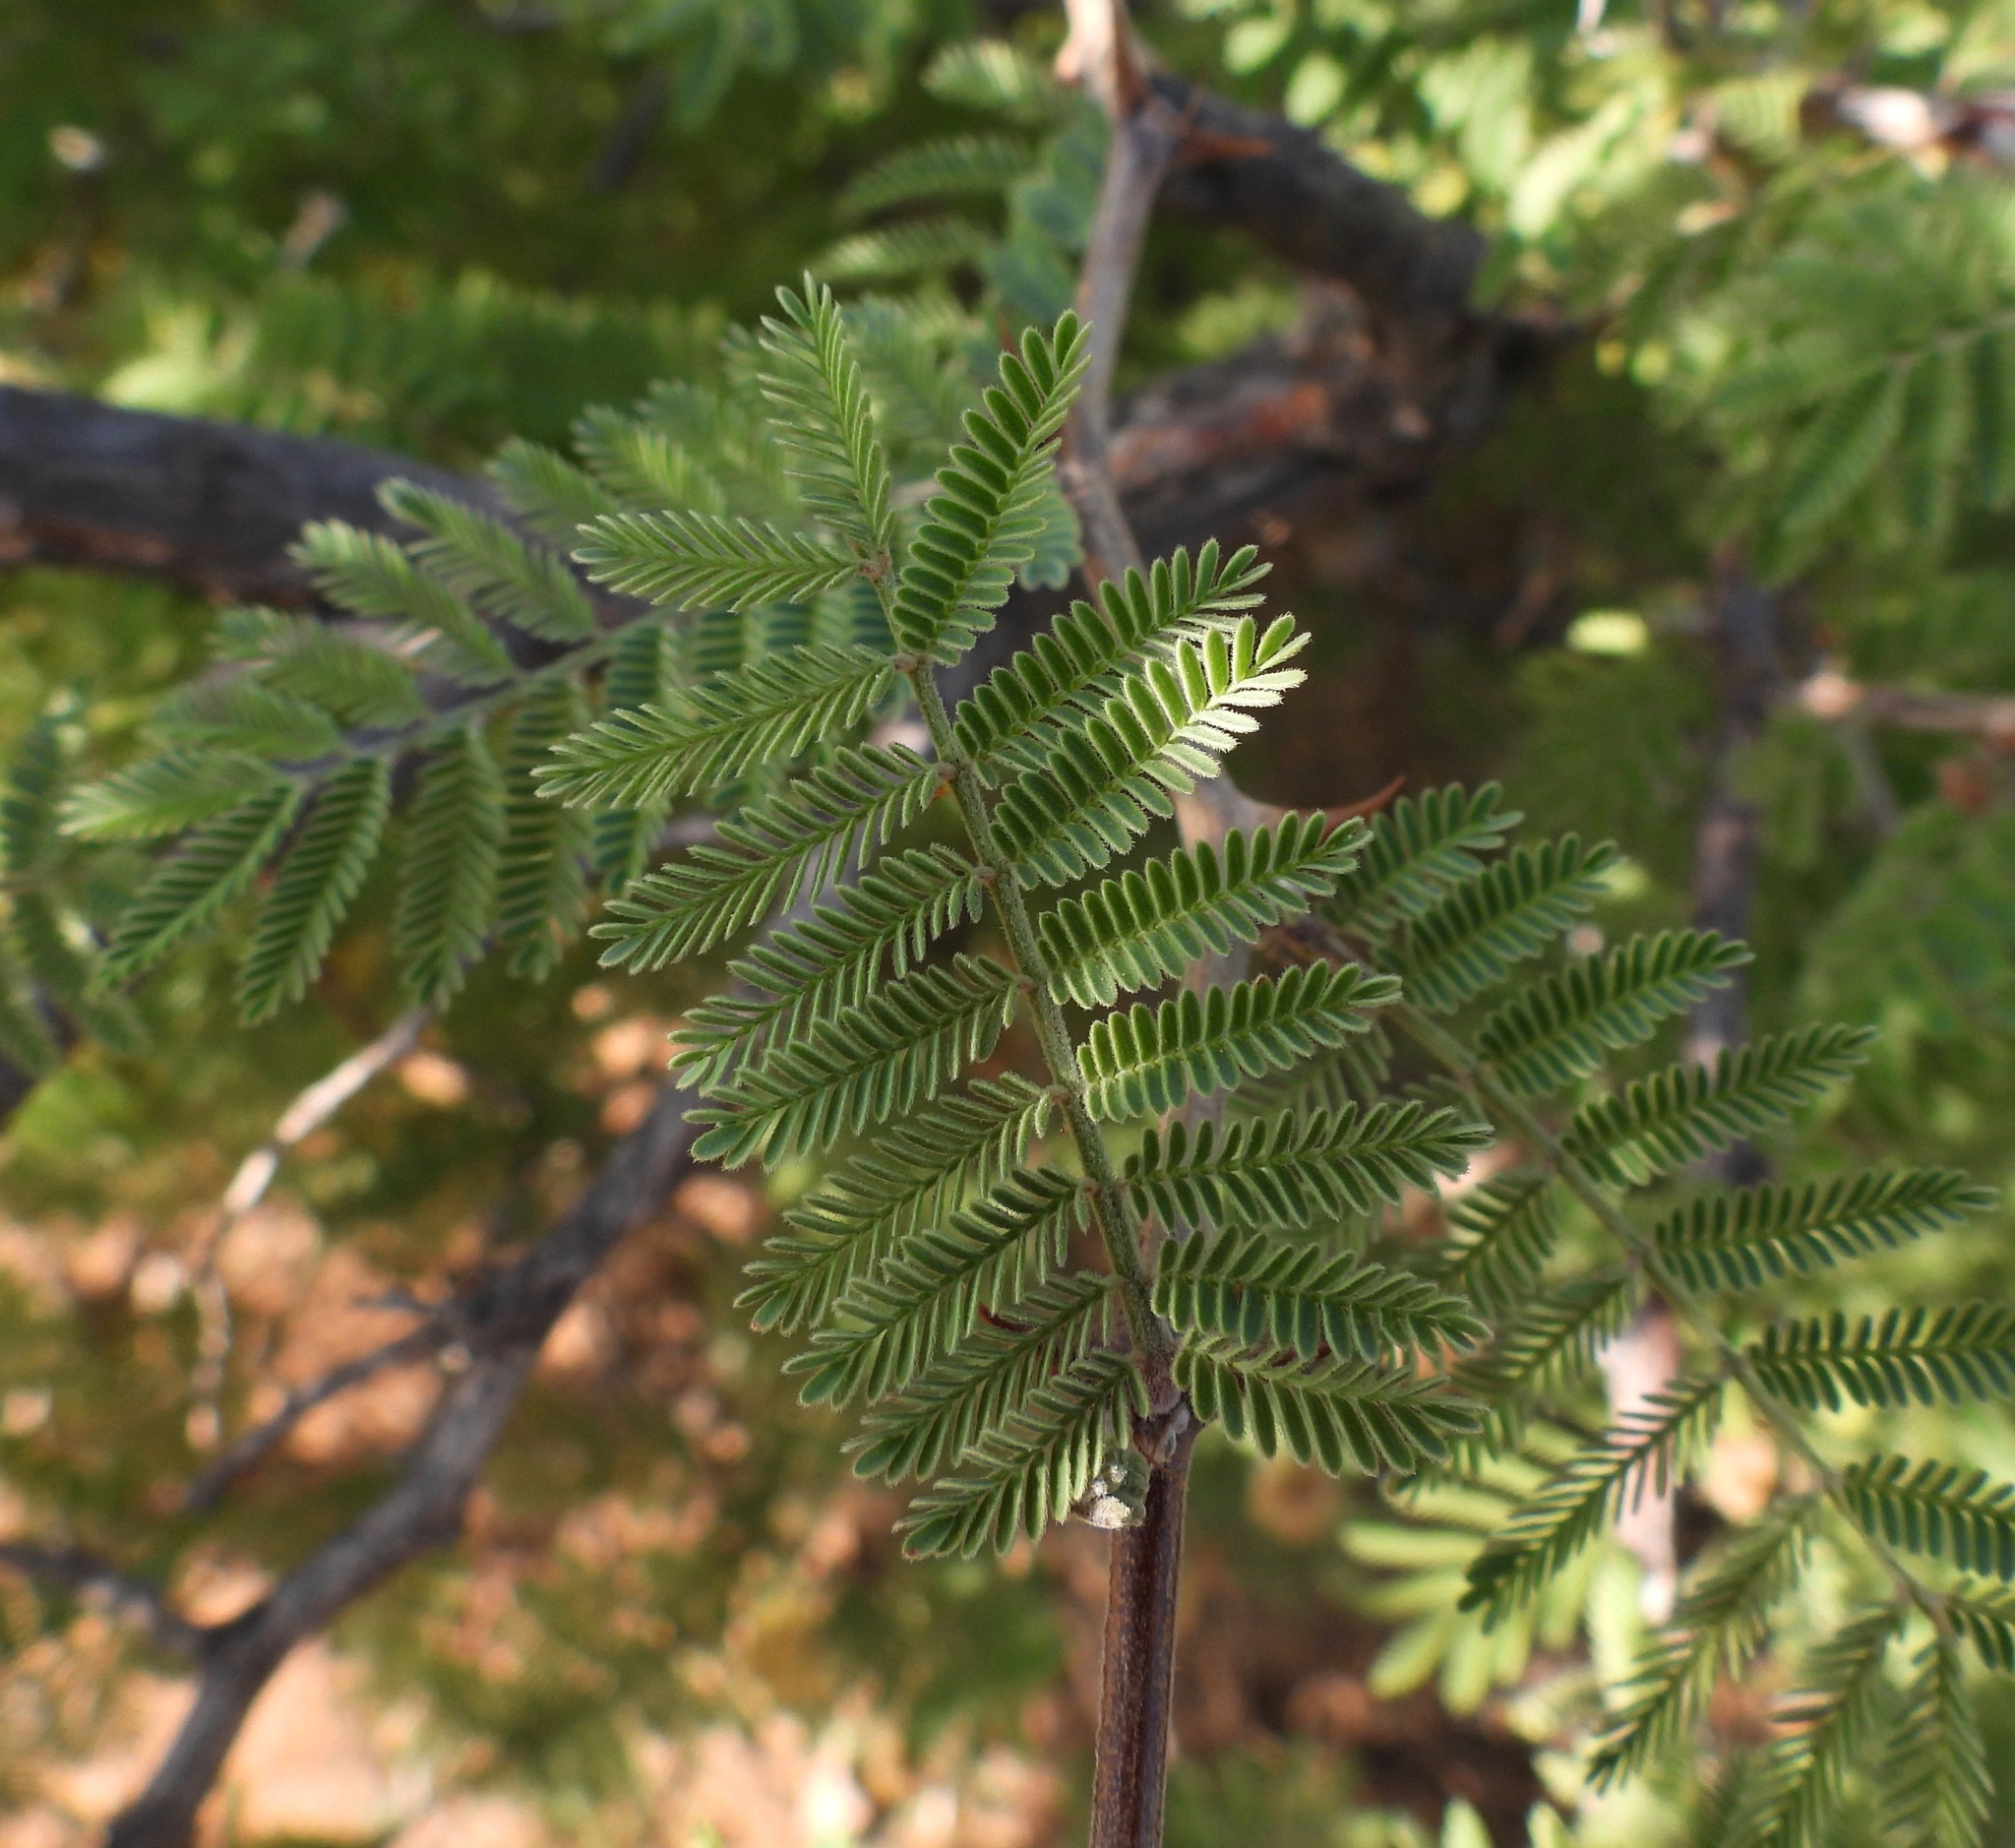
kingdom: Plantae
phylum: Tracheophyta
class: Magnoliopsida
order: Fabales
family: Fabaceae
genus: Mimosa
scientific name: Mimosa aculeaticarpa
